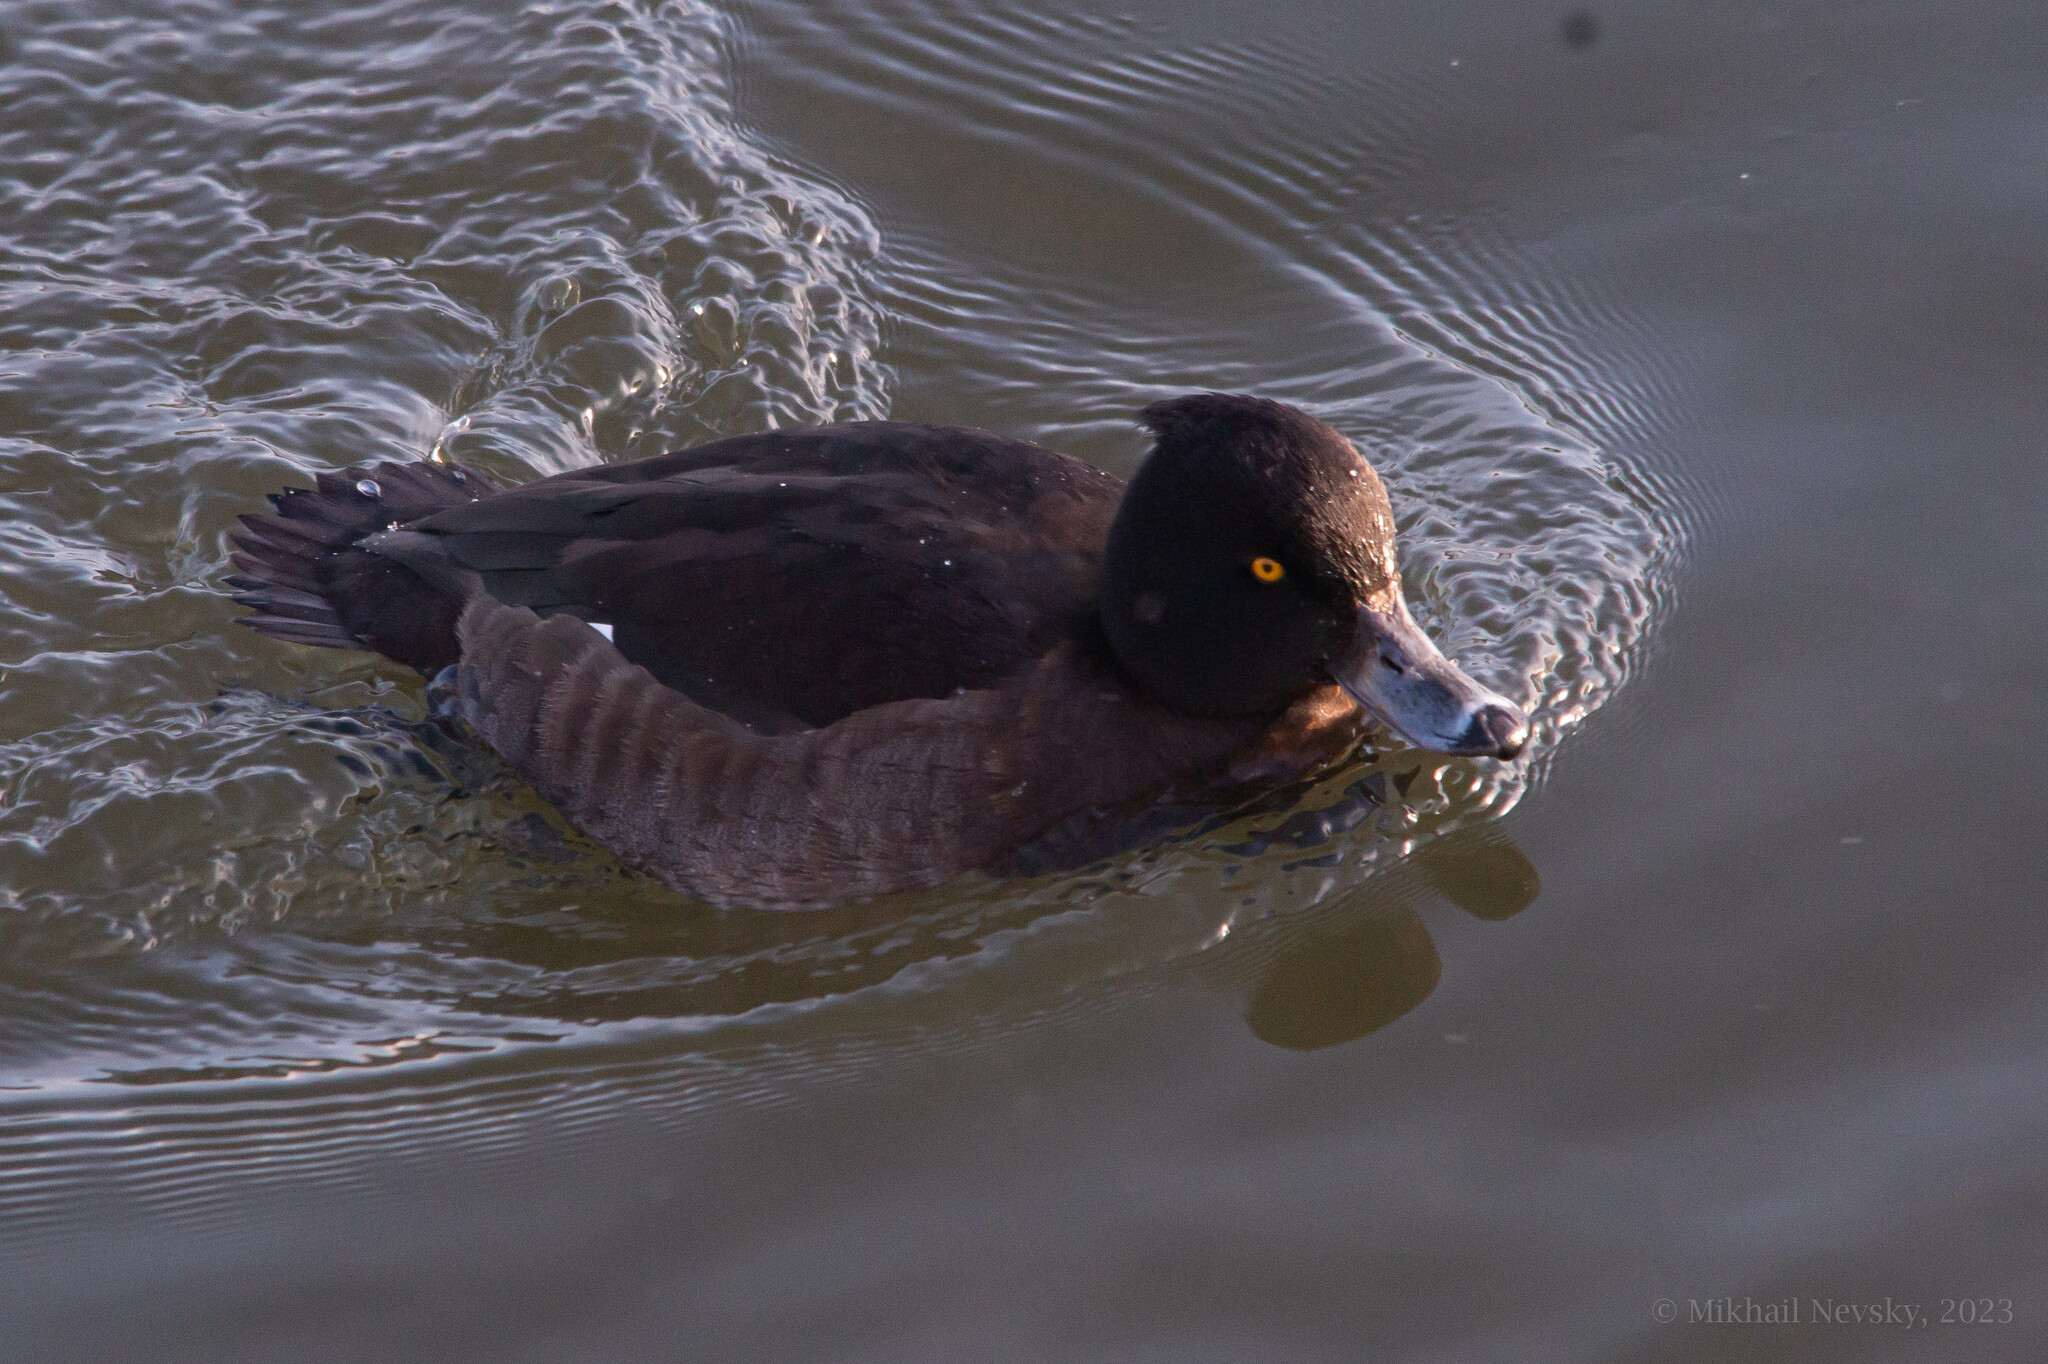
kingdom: Animalia
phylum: Chordata
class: Aves
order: Anseriformes
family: Anatidae
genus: Aythya
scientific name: Aythya fuligula
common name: Tufted duck
